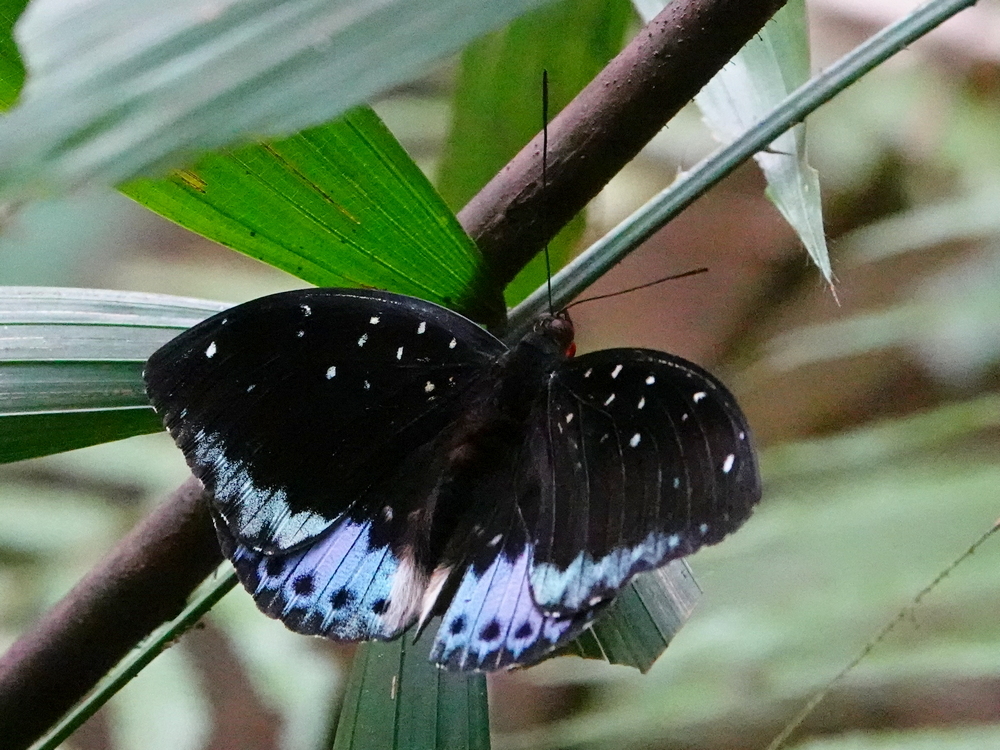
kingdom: Animalia
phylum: Arthropoda
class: Insecta
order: Lepidoptera
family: Nymphalidae
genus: Lexias
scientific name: Lexias pardalis
